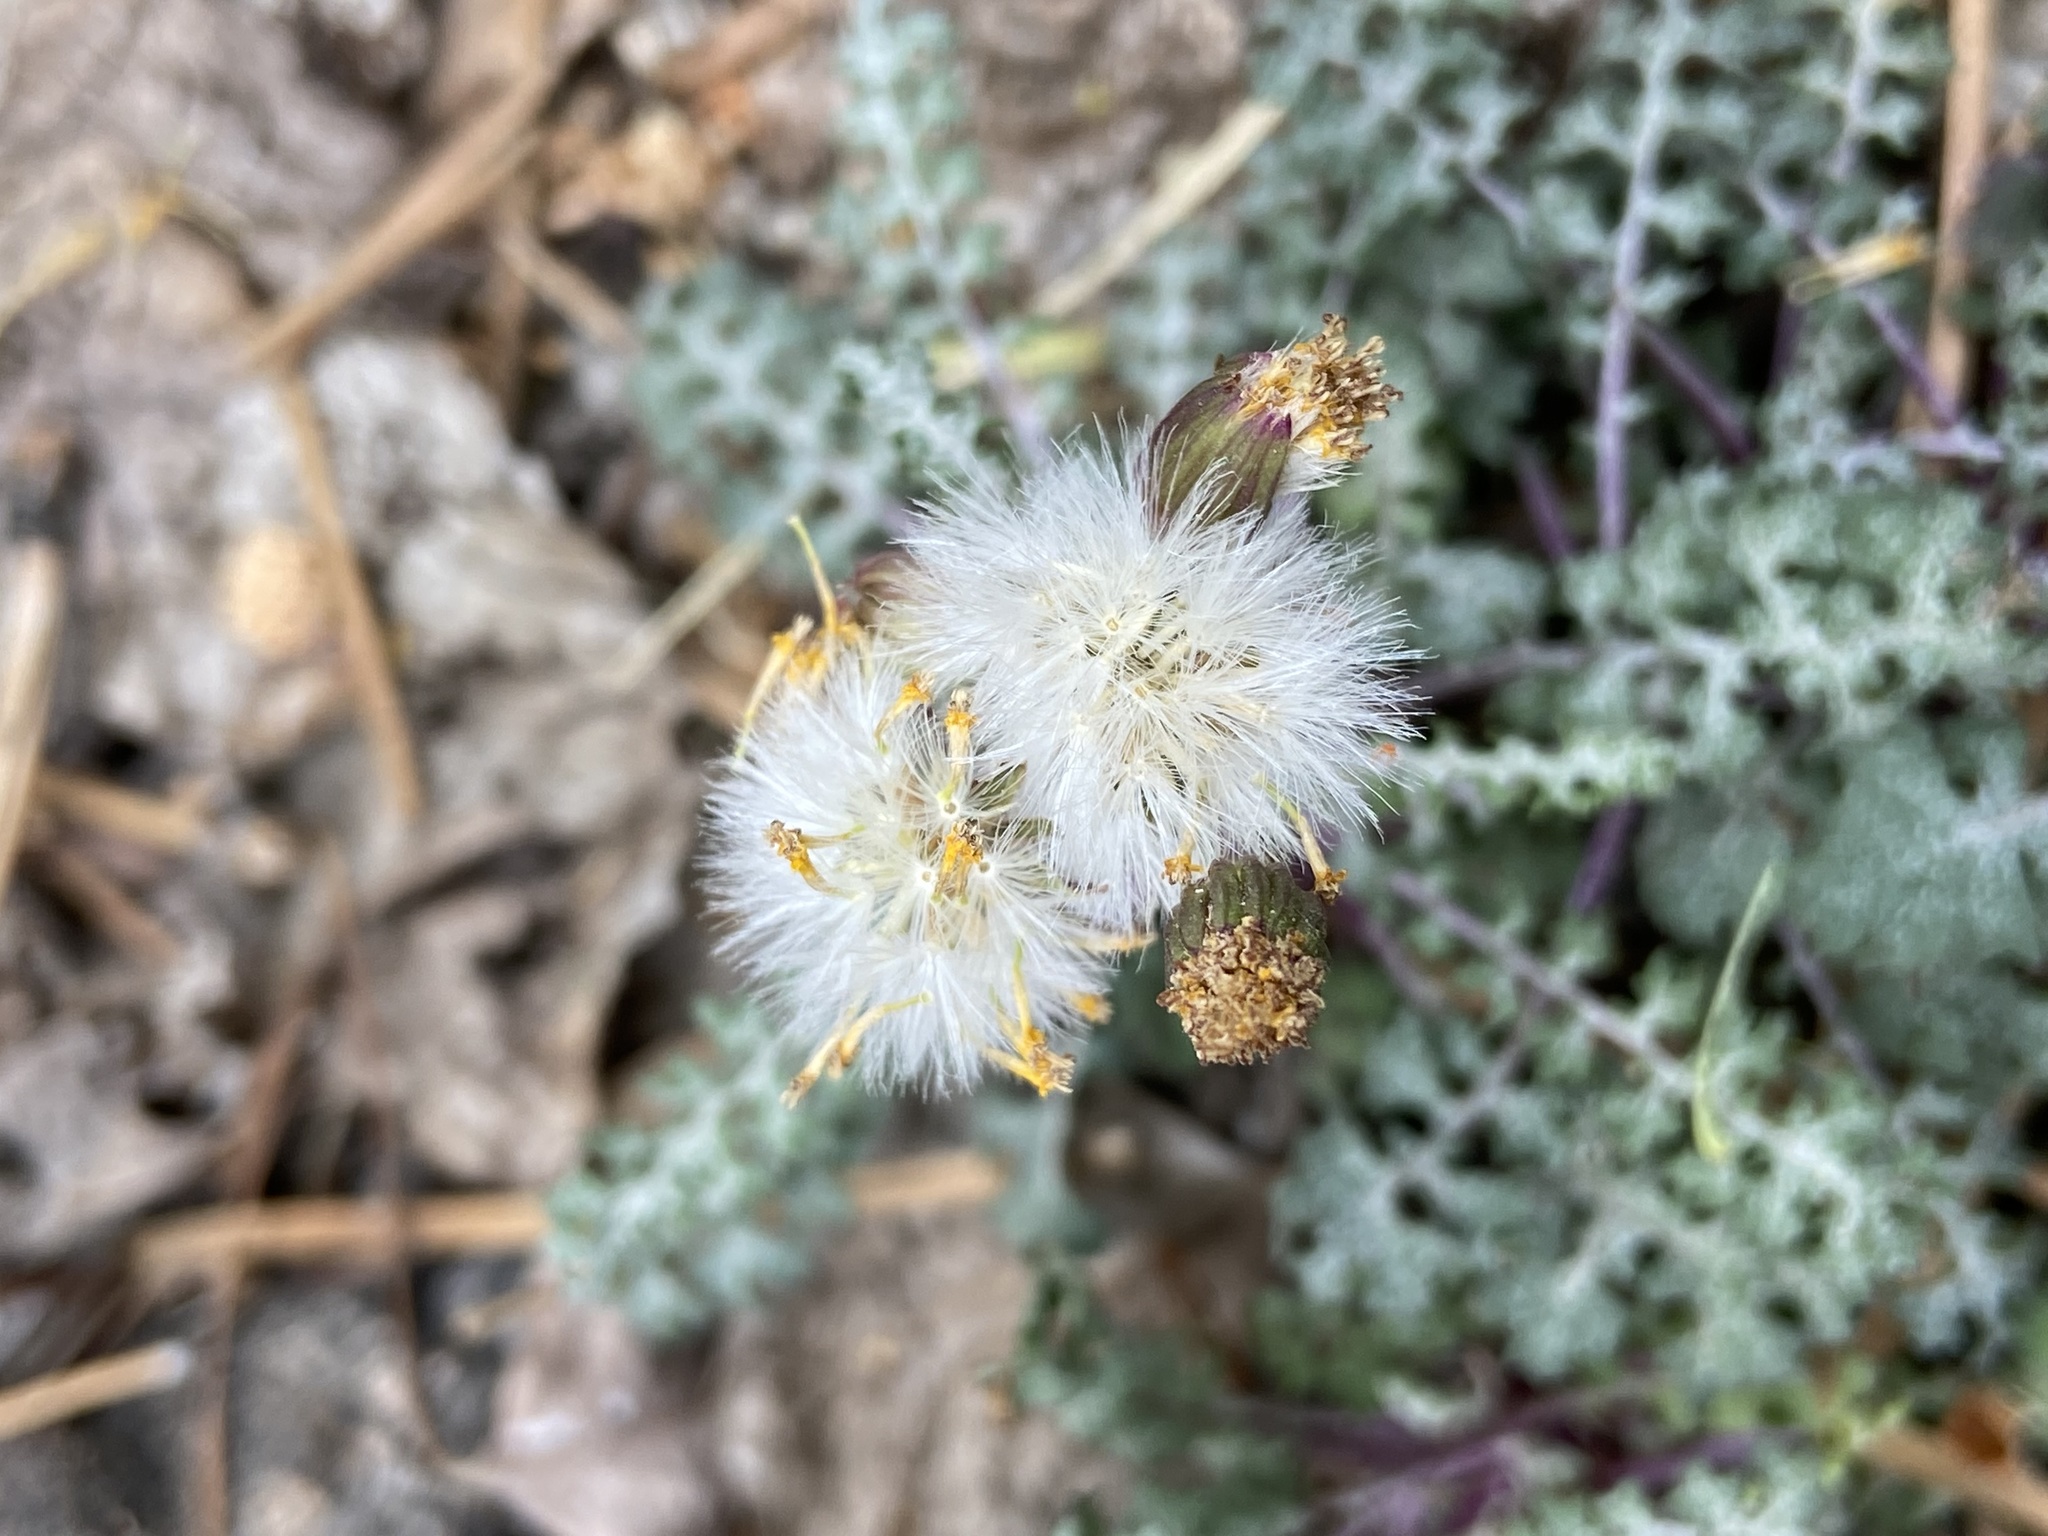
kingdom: Plantae
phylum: Tracheophyta
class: Magnoliopsida
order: Asterales
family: Asteraceae
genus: Packera
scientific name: Packera multilobata
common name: Lobe-leaf groundsel
